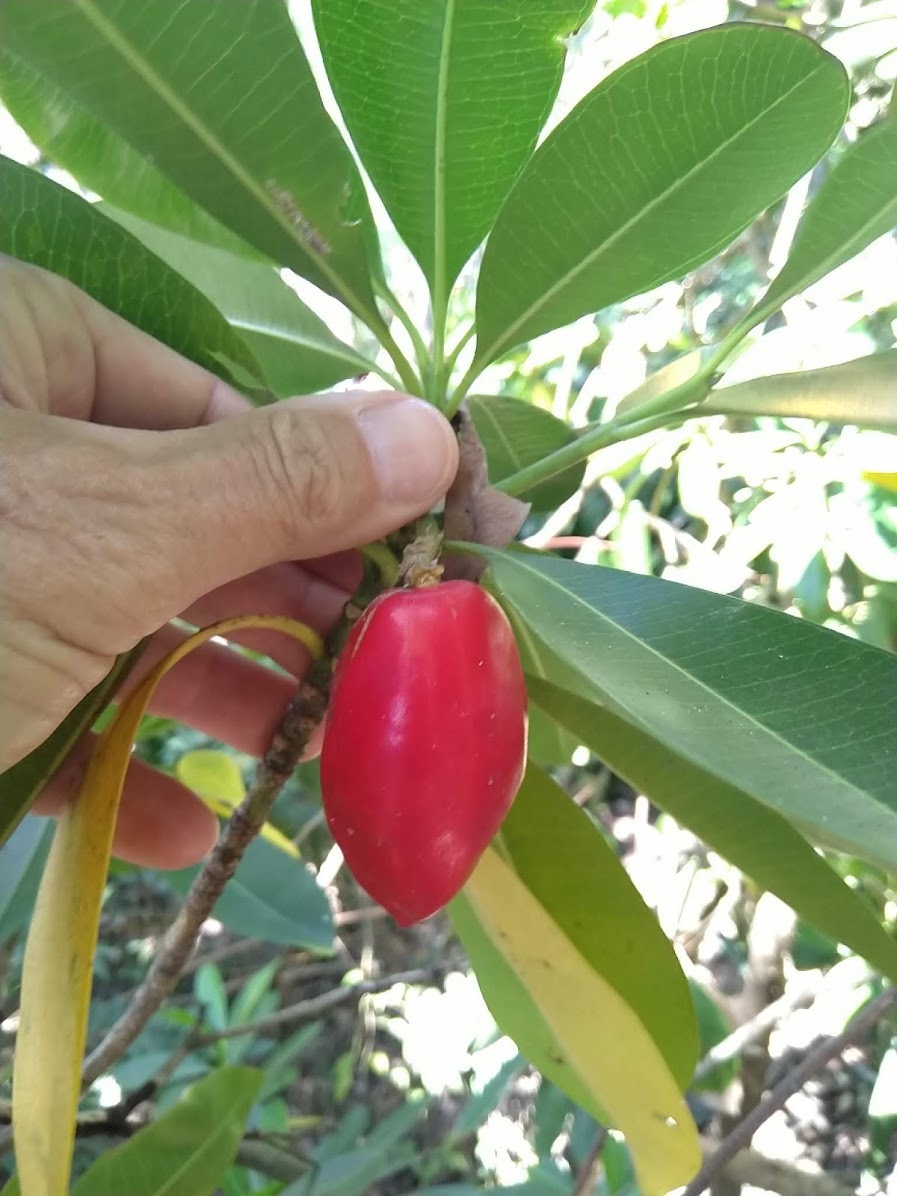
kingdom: Plantae
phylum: Tracheophyta
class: Magnoliopsida
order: Gentianales
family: Apocynaceae
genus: Cerbera
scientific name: Cerbera manghas
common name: Reva
